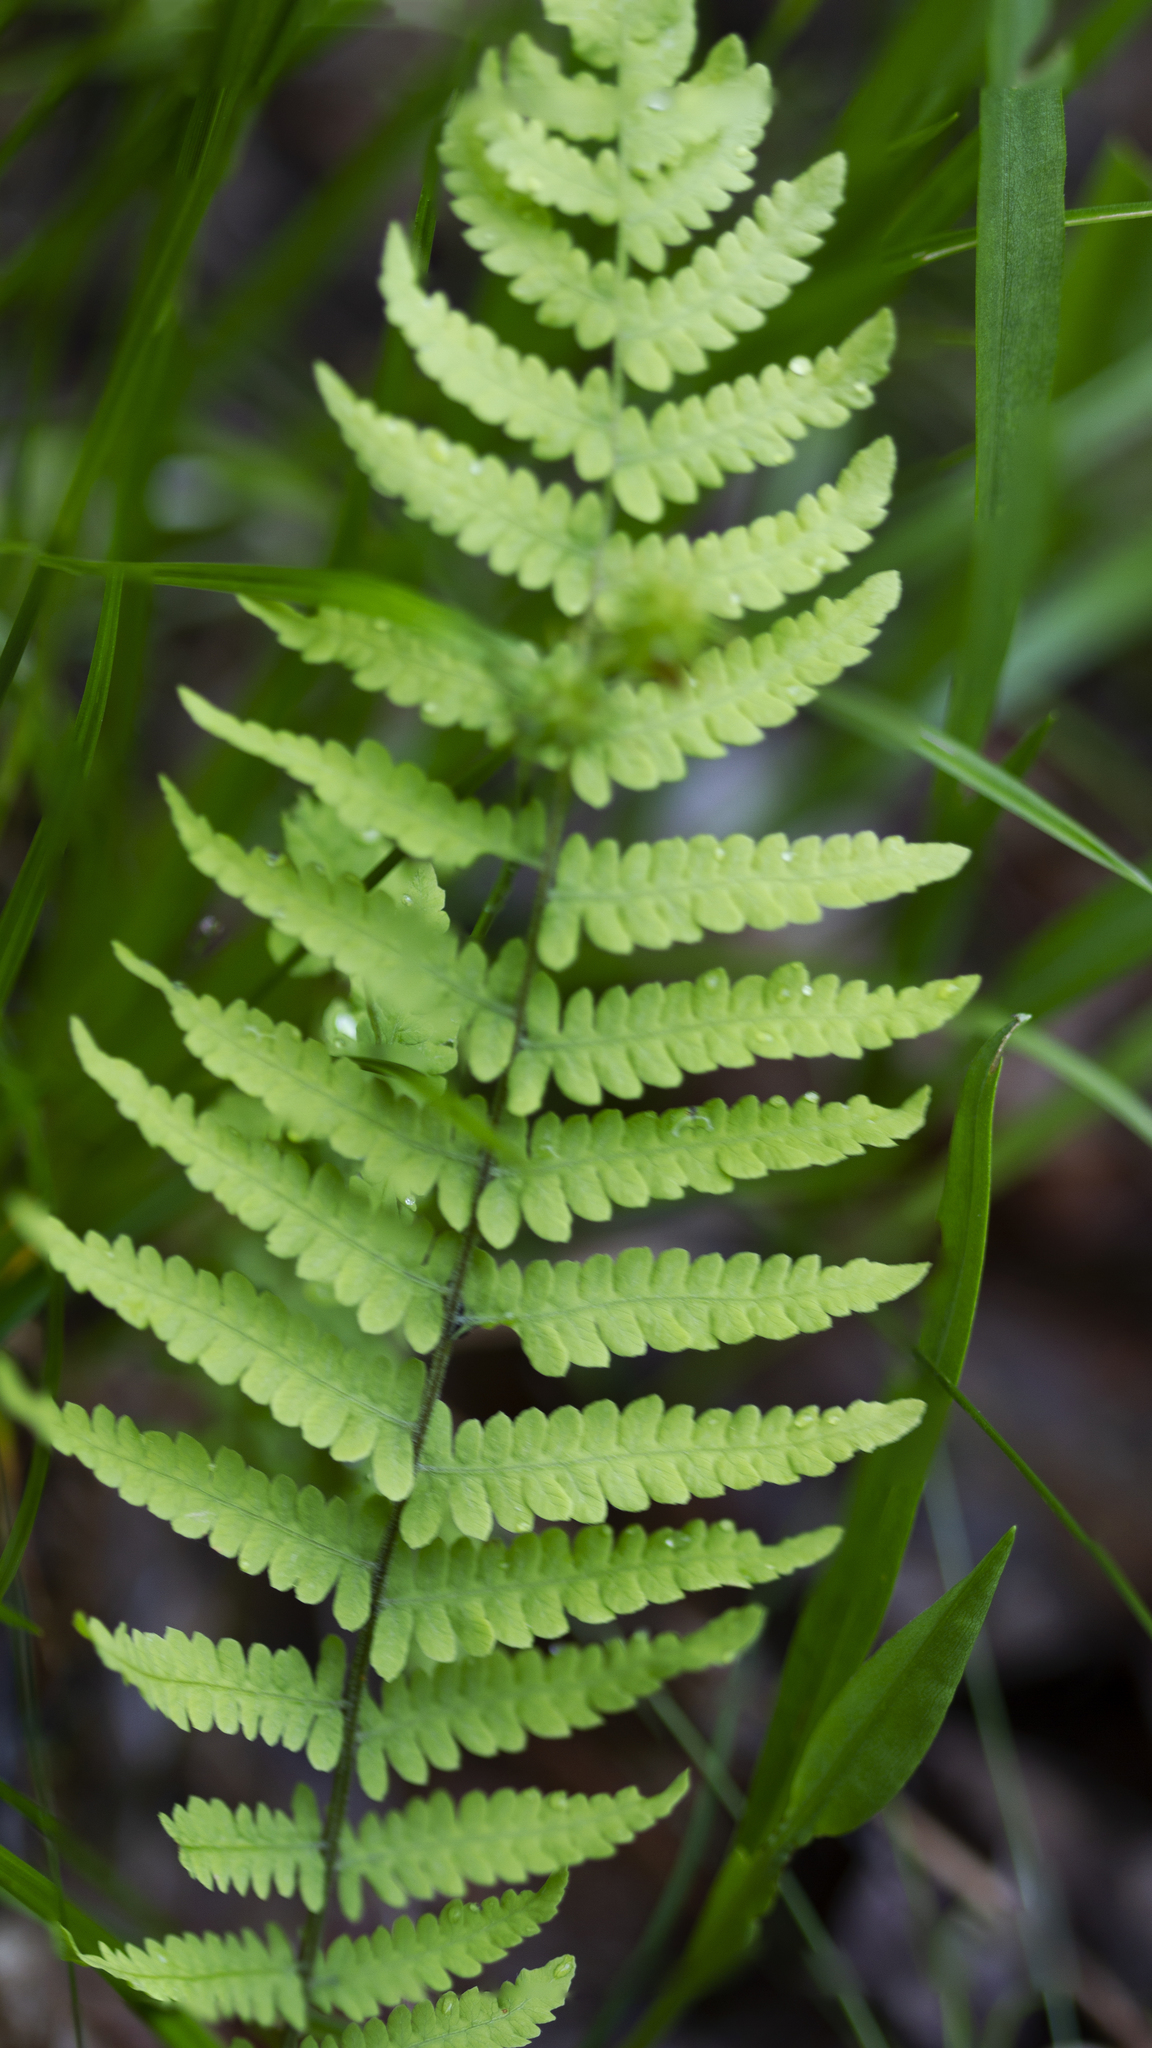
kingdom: Plantae
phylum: Tracheophyta
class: Polypodiopsida
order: Polypodiales
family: Thelypteridaceae
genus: Thelypteris
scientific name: Thelypteris palustris
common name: Marsh fern
